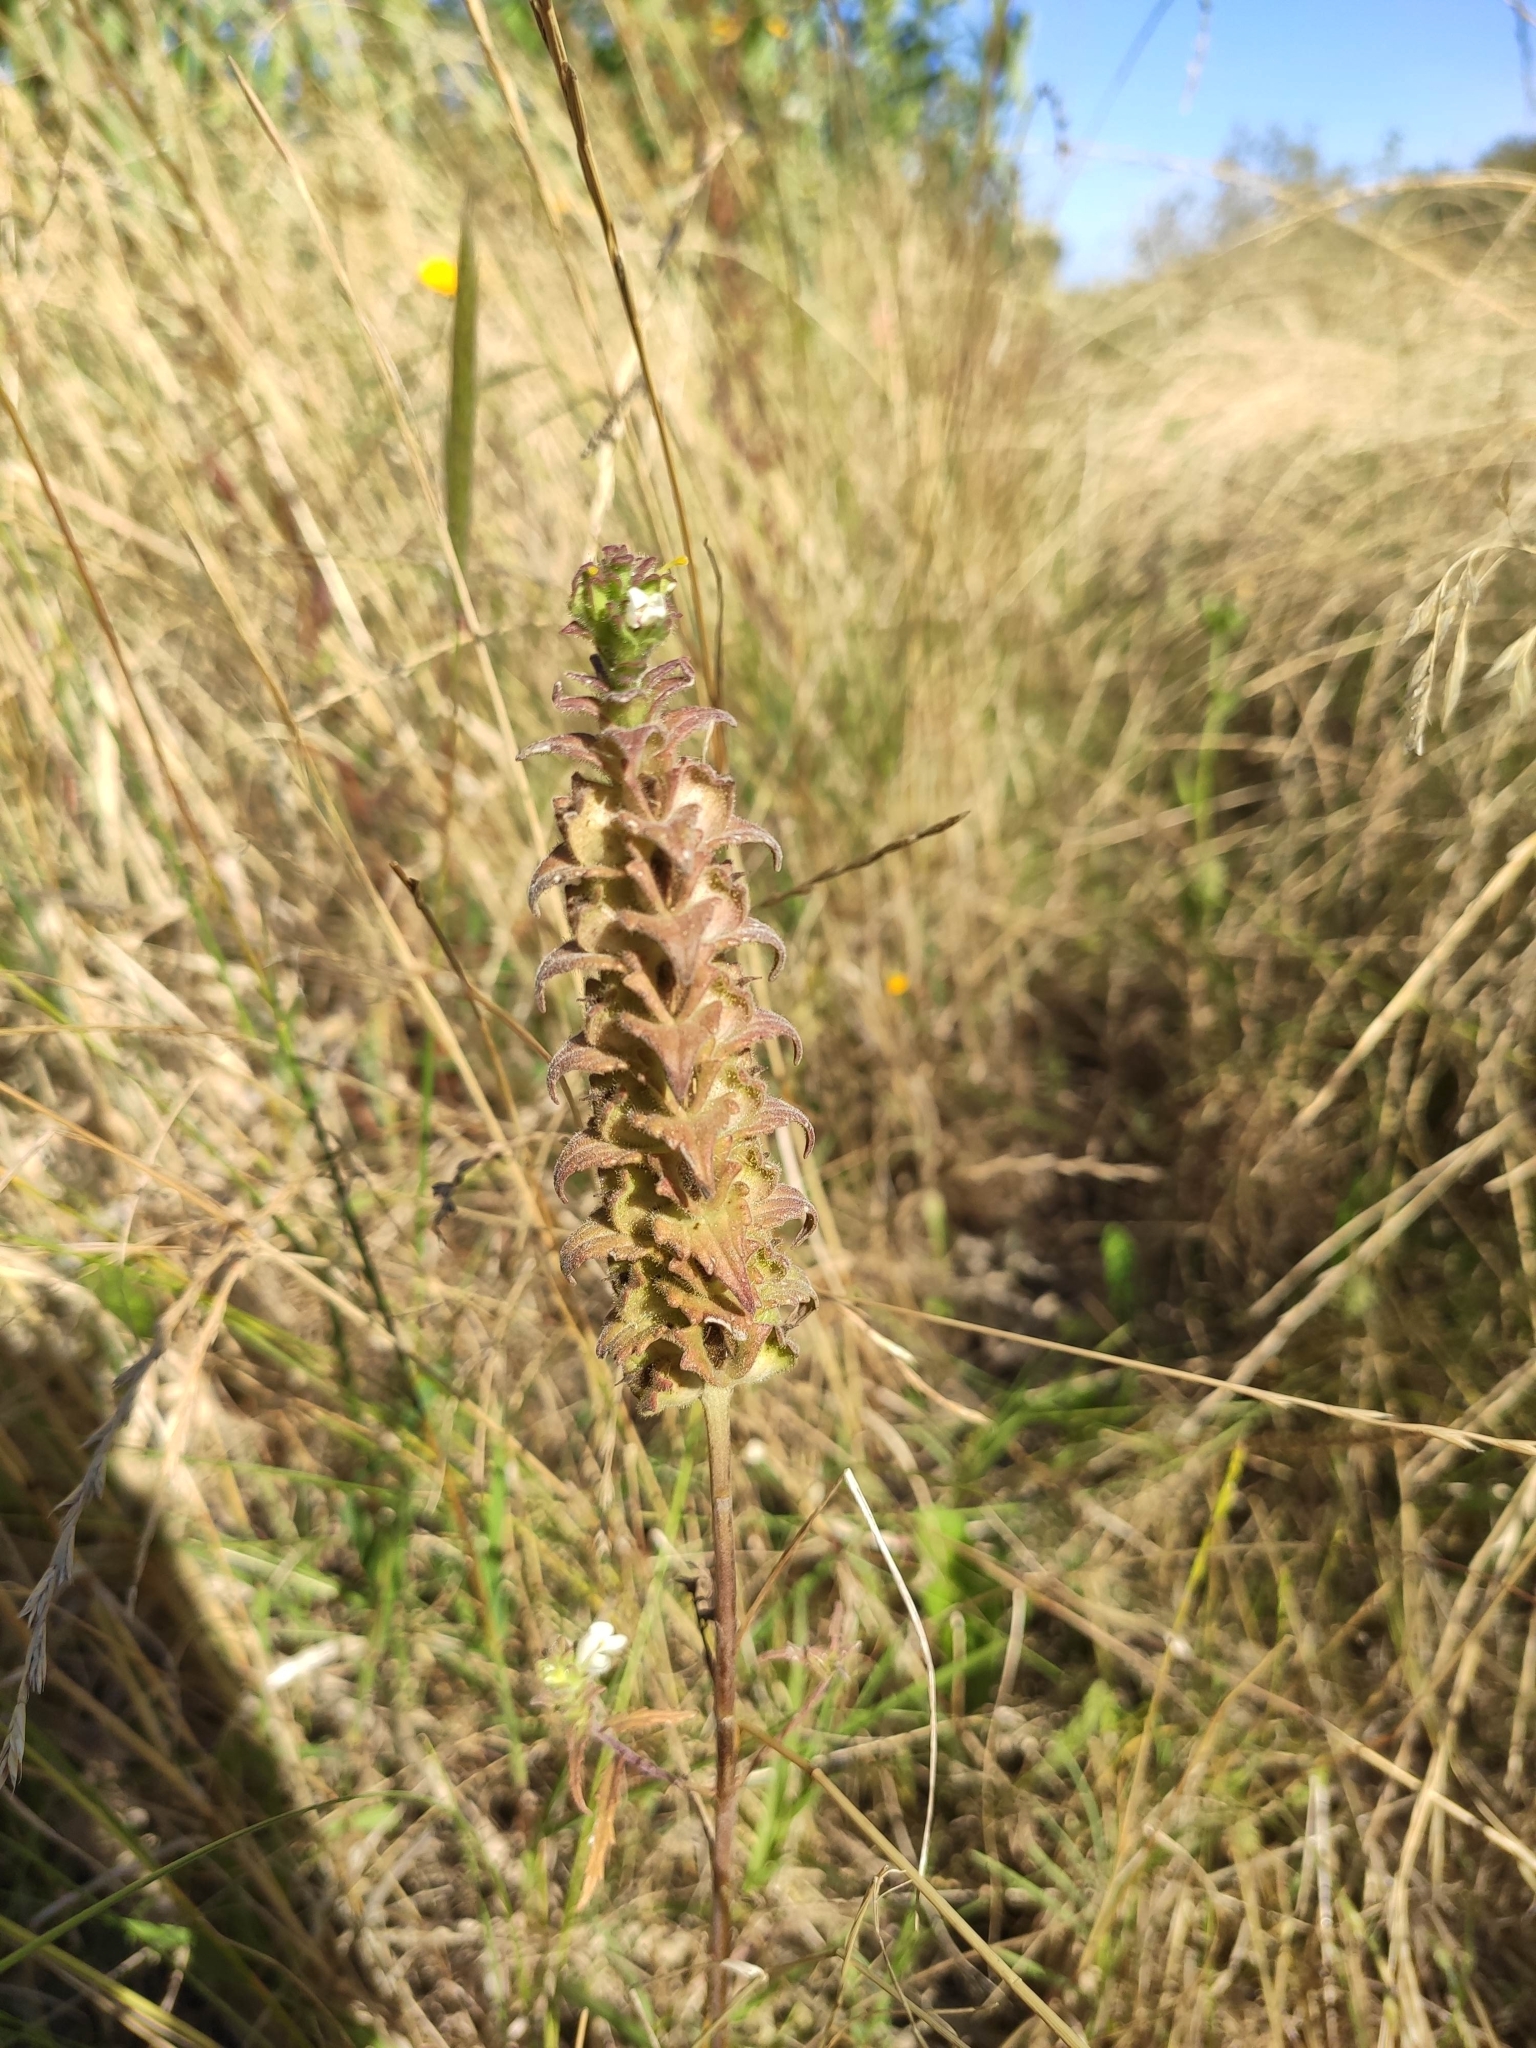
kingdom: Plantae
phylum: Tracheophyta
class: Magnoliopsida
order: Lamiales
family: Orobanchaceae
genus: Bellardia
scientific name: Bellardia trixago
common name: Mediterranean lineseed
